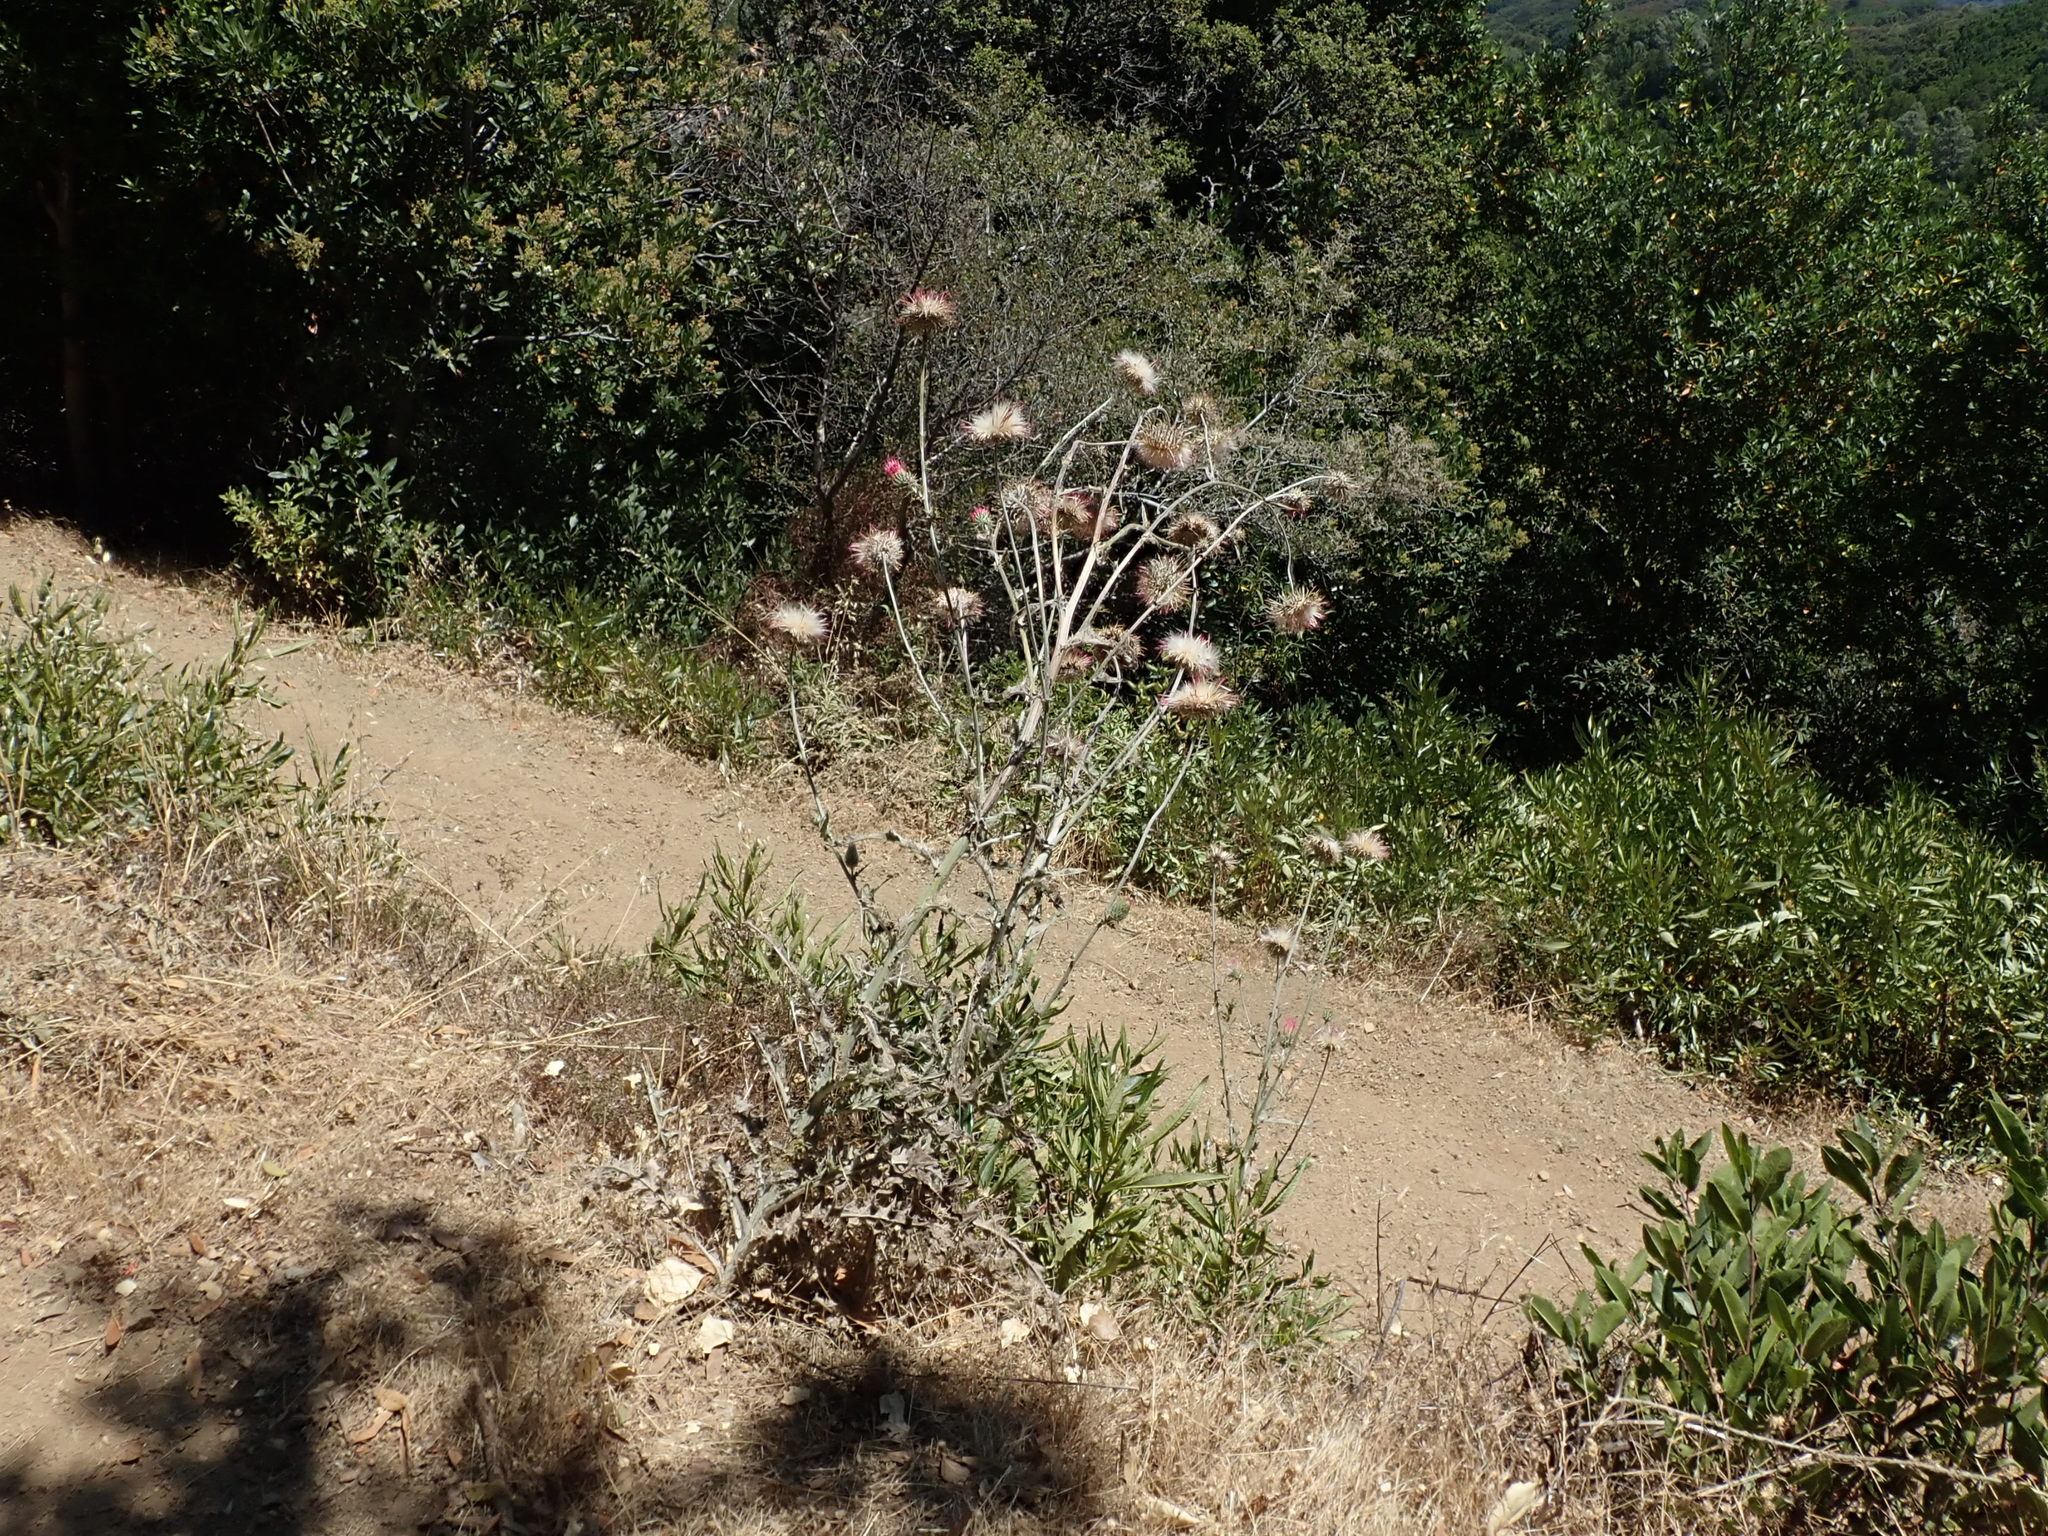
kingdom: Plantae
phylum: Tracheophyta
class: Magnoliopsida
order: Asterales
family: Asteraceae
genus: Cirsium
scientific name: Cirsium occidentale
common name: Western thistle
